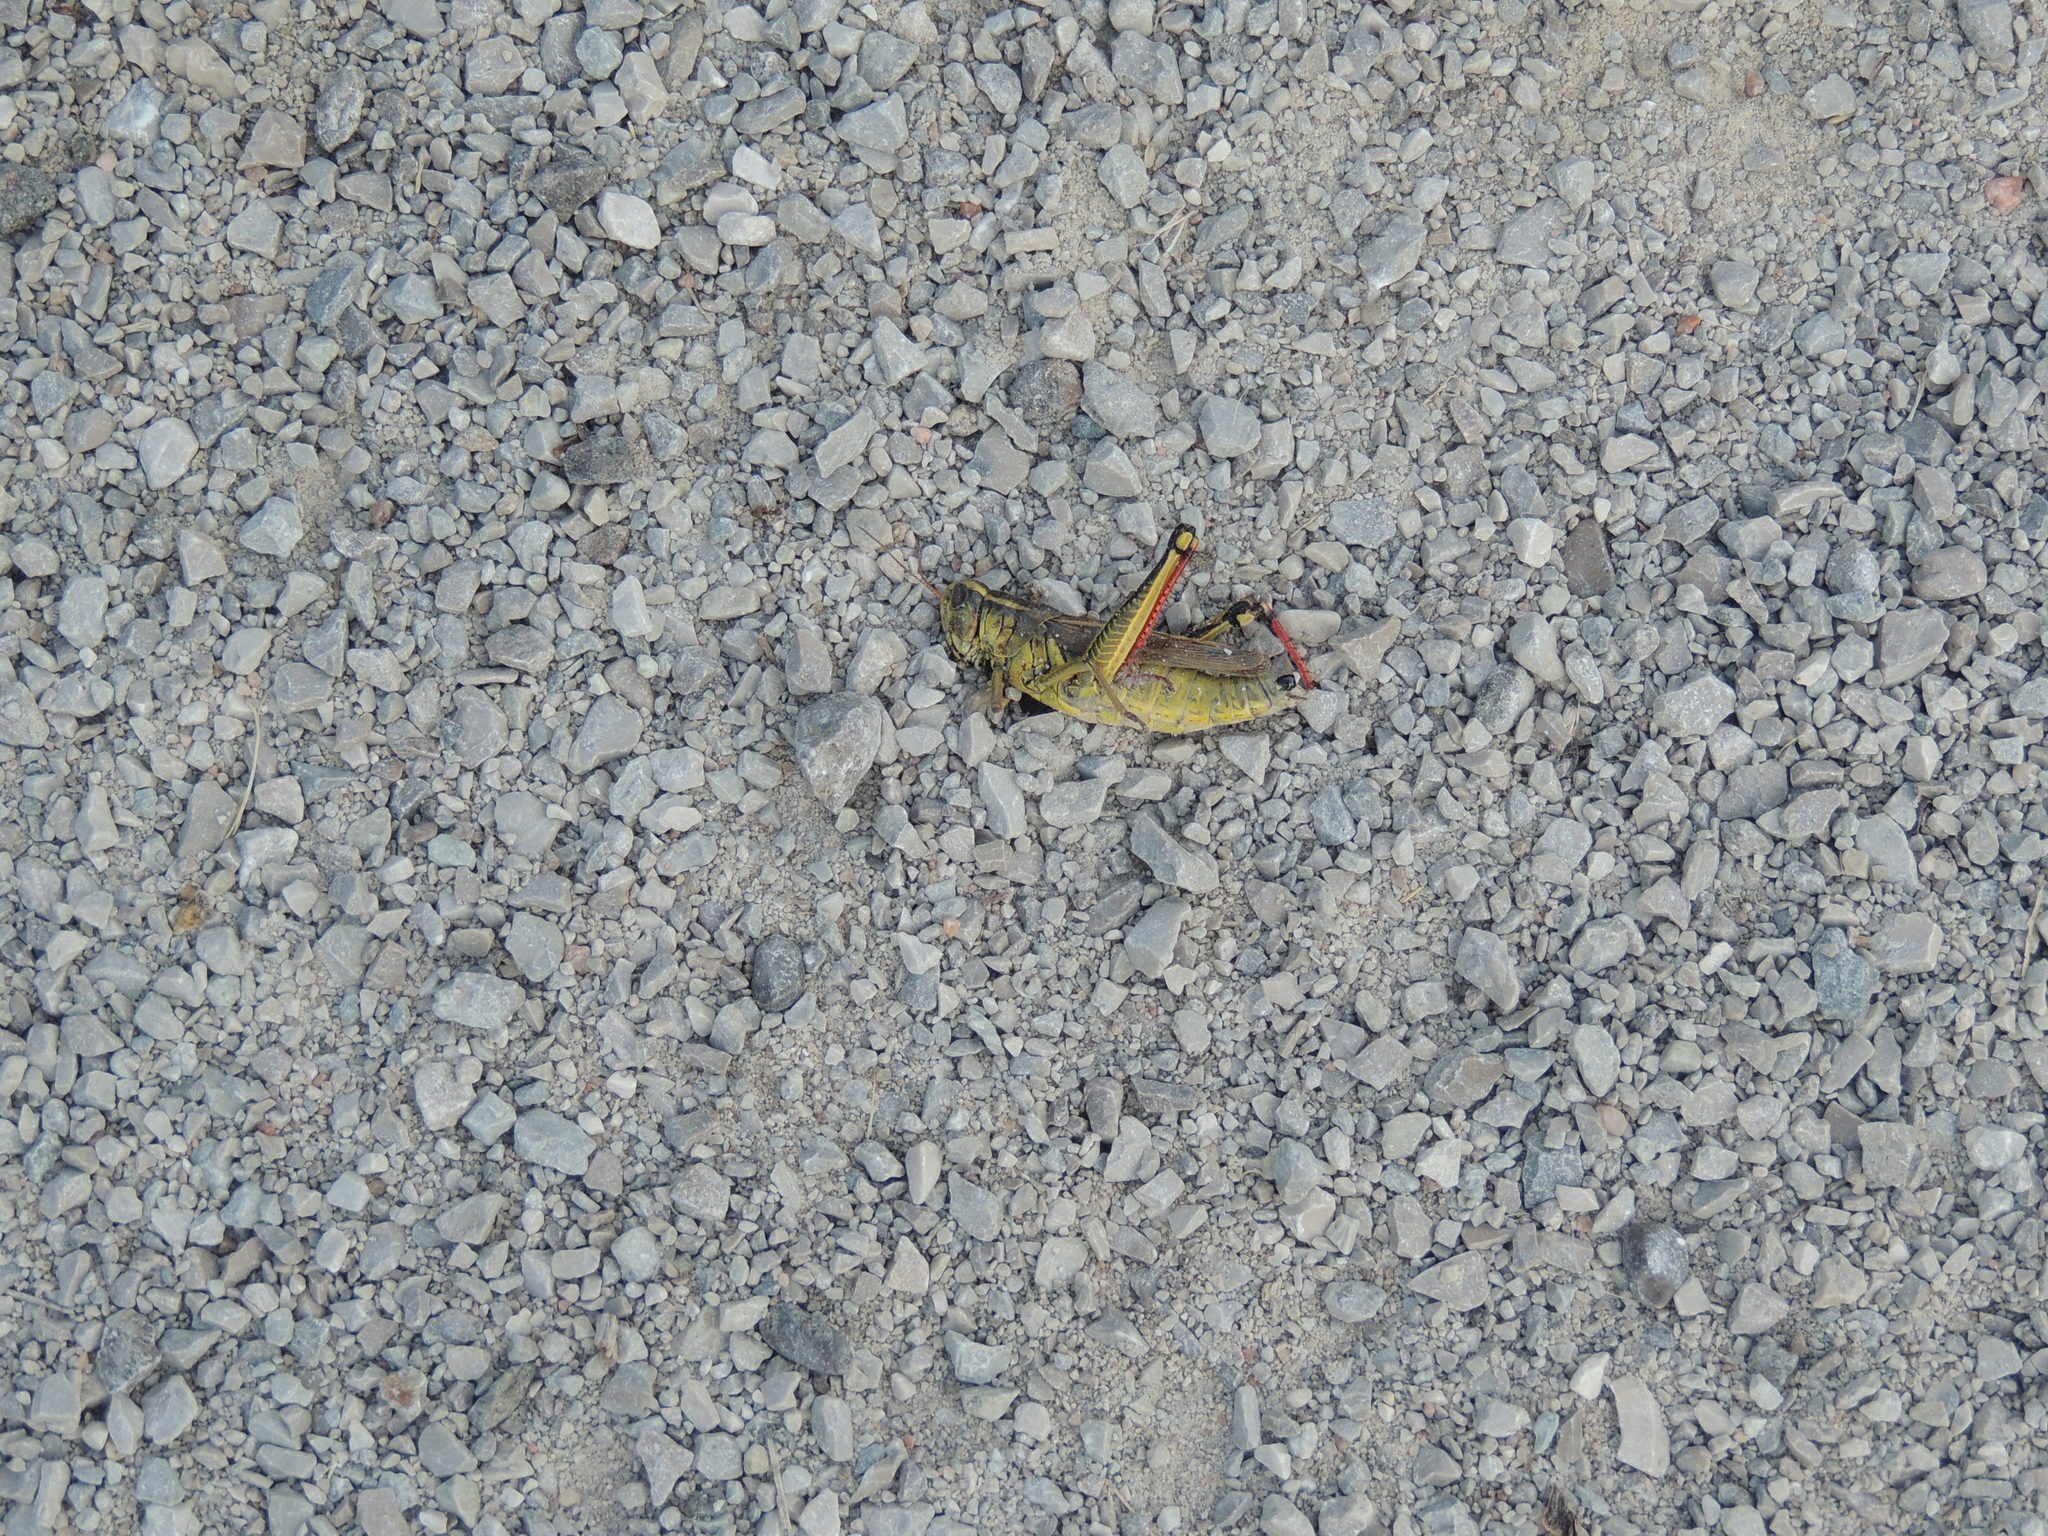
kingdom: Animalia
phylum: Arthropoda
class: Insecta
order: Orthoptera
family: Acrididae
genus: Melanoplus
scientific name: Melanoplus bivittatus
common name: Two-striped grasshopper
